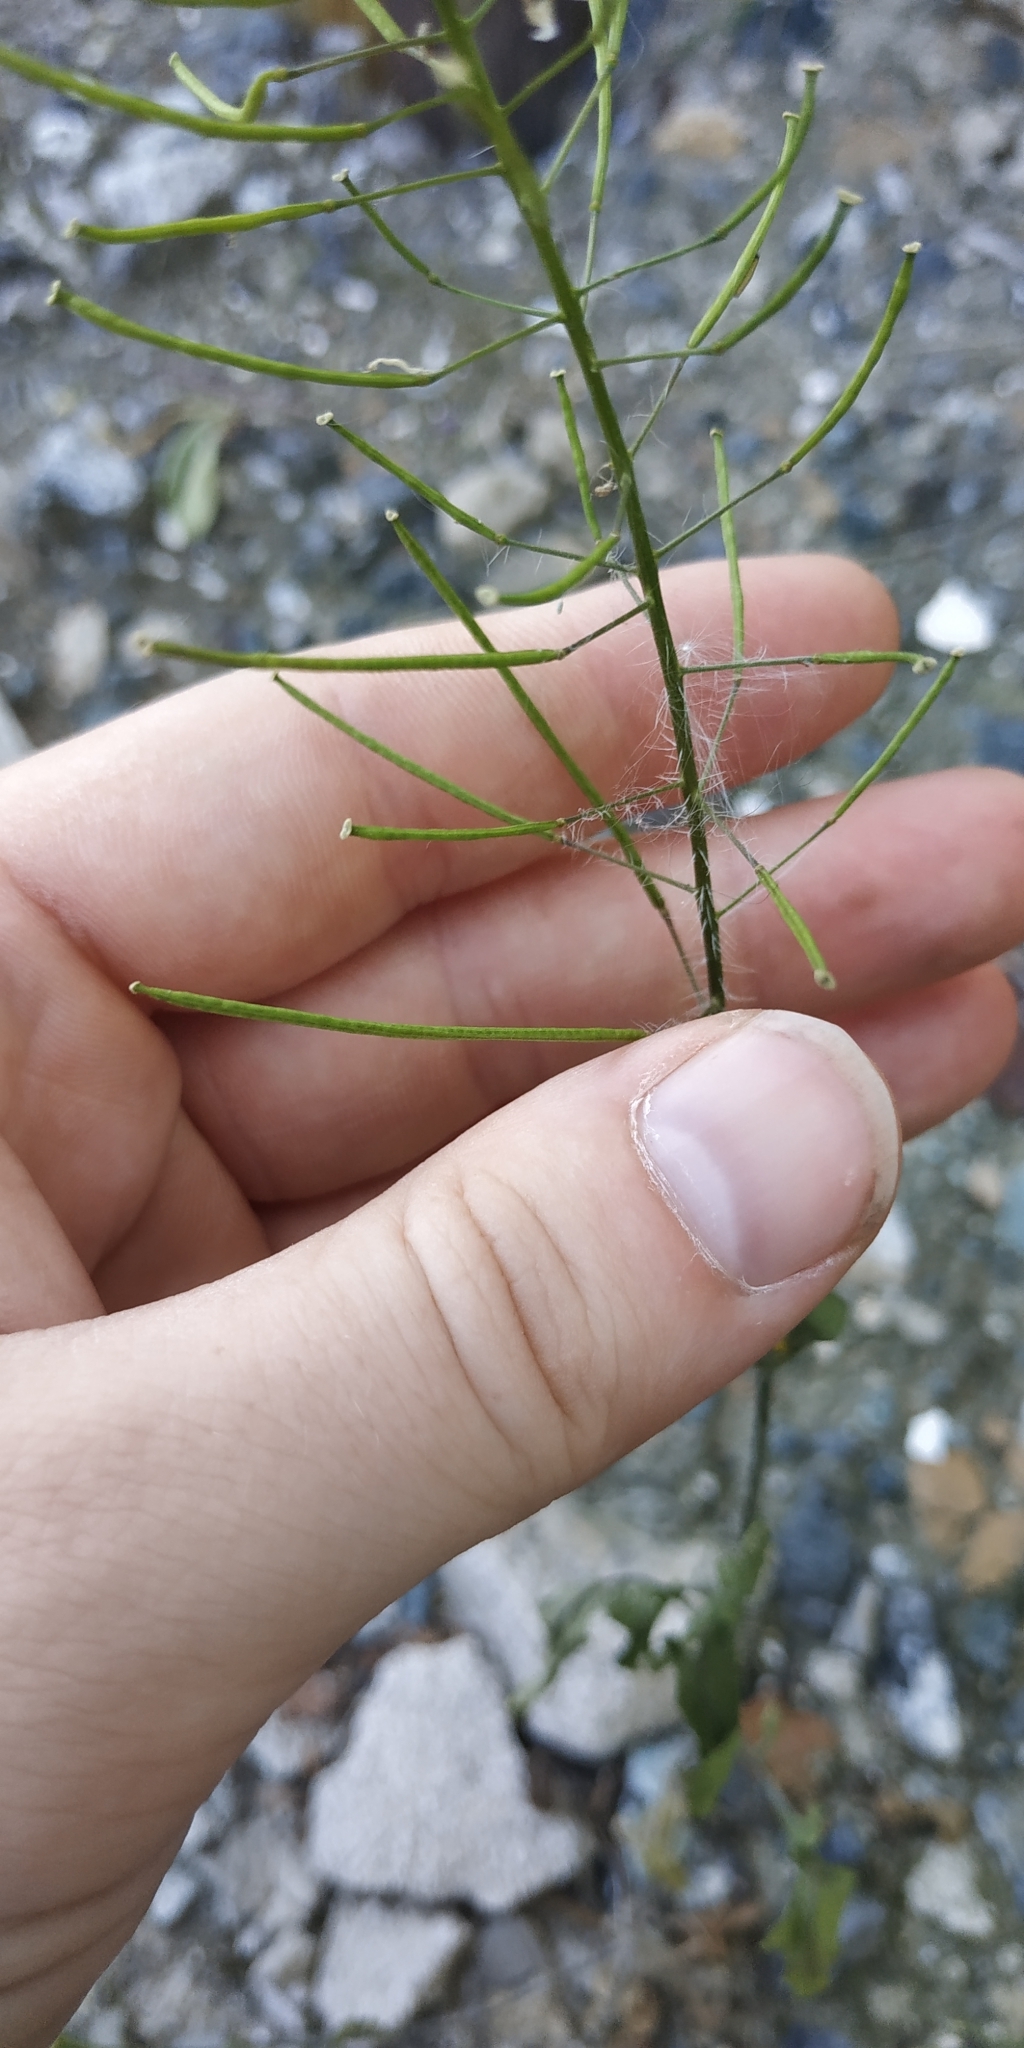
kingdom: Plantae
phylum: Tracheophyta
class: Magnoliopsida
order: Brassicales
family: Brassicaceae
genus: Sisymbrium
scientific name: Sisymbrium loeselii
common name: False london-rocket
